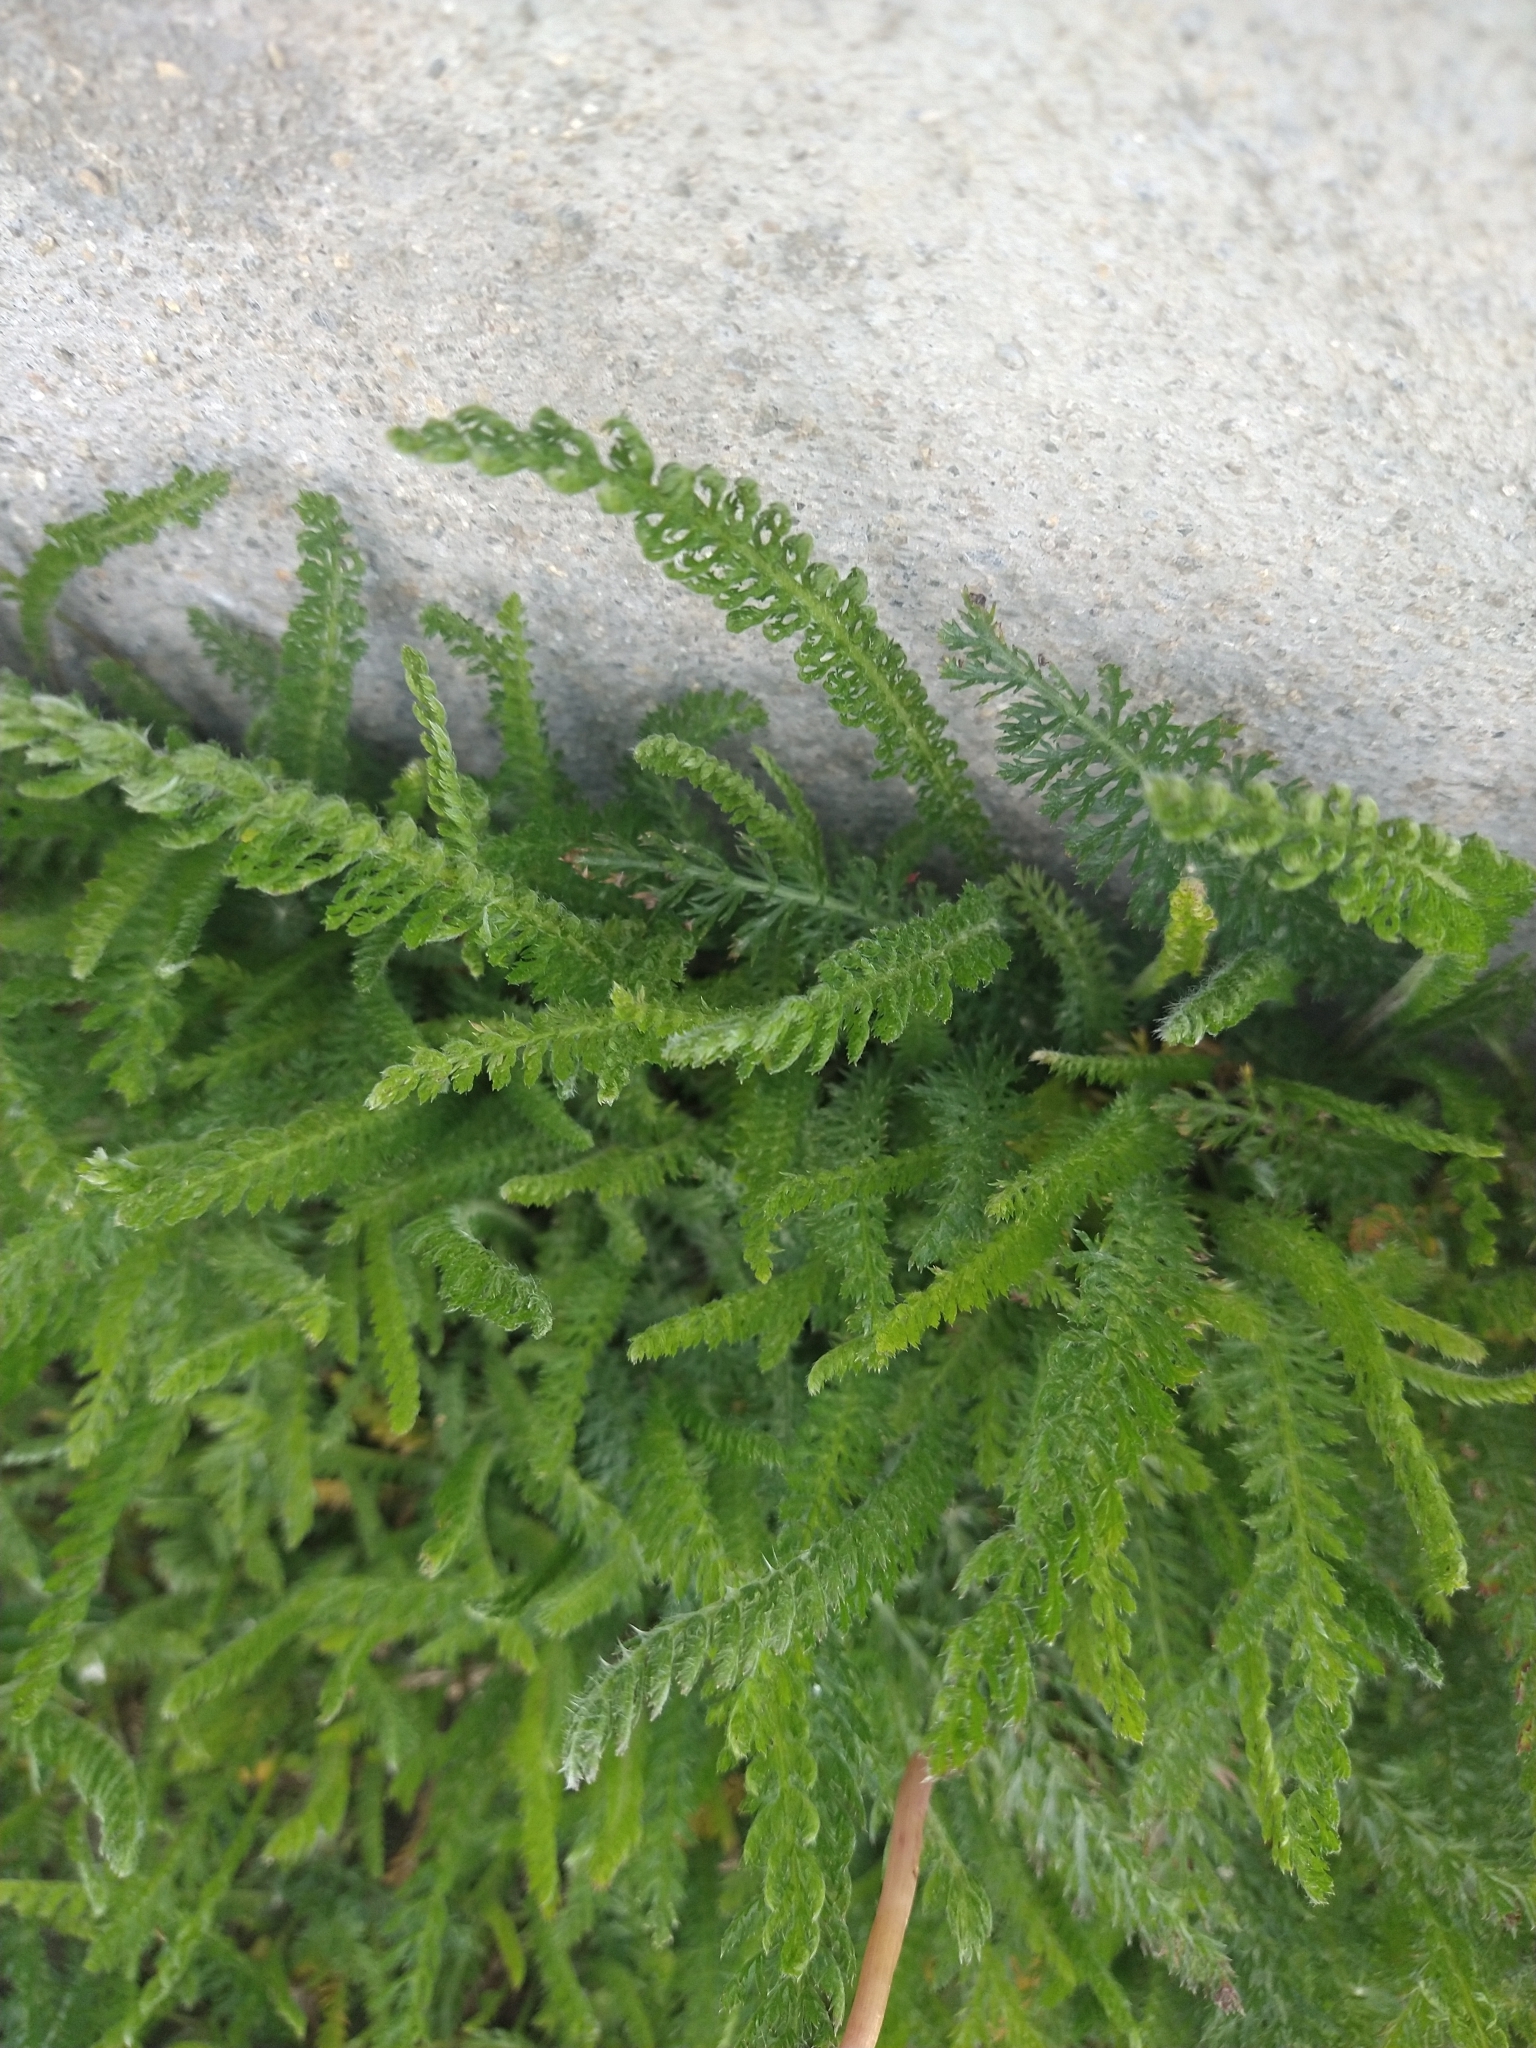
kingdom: Plantae
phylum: Tracheophyta
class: Magnoliopsida
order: Asterales
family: Asteraceae
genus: Achillea
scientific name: Achillea millefolium
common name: Yarrow
